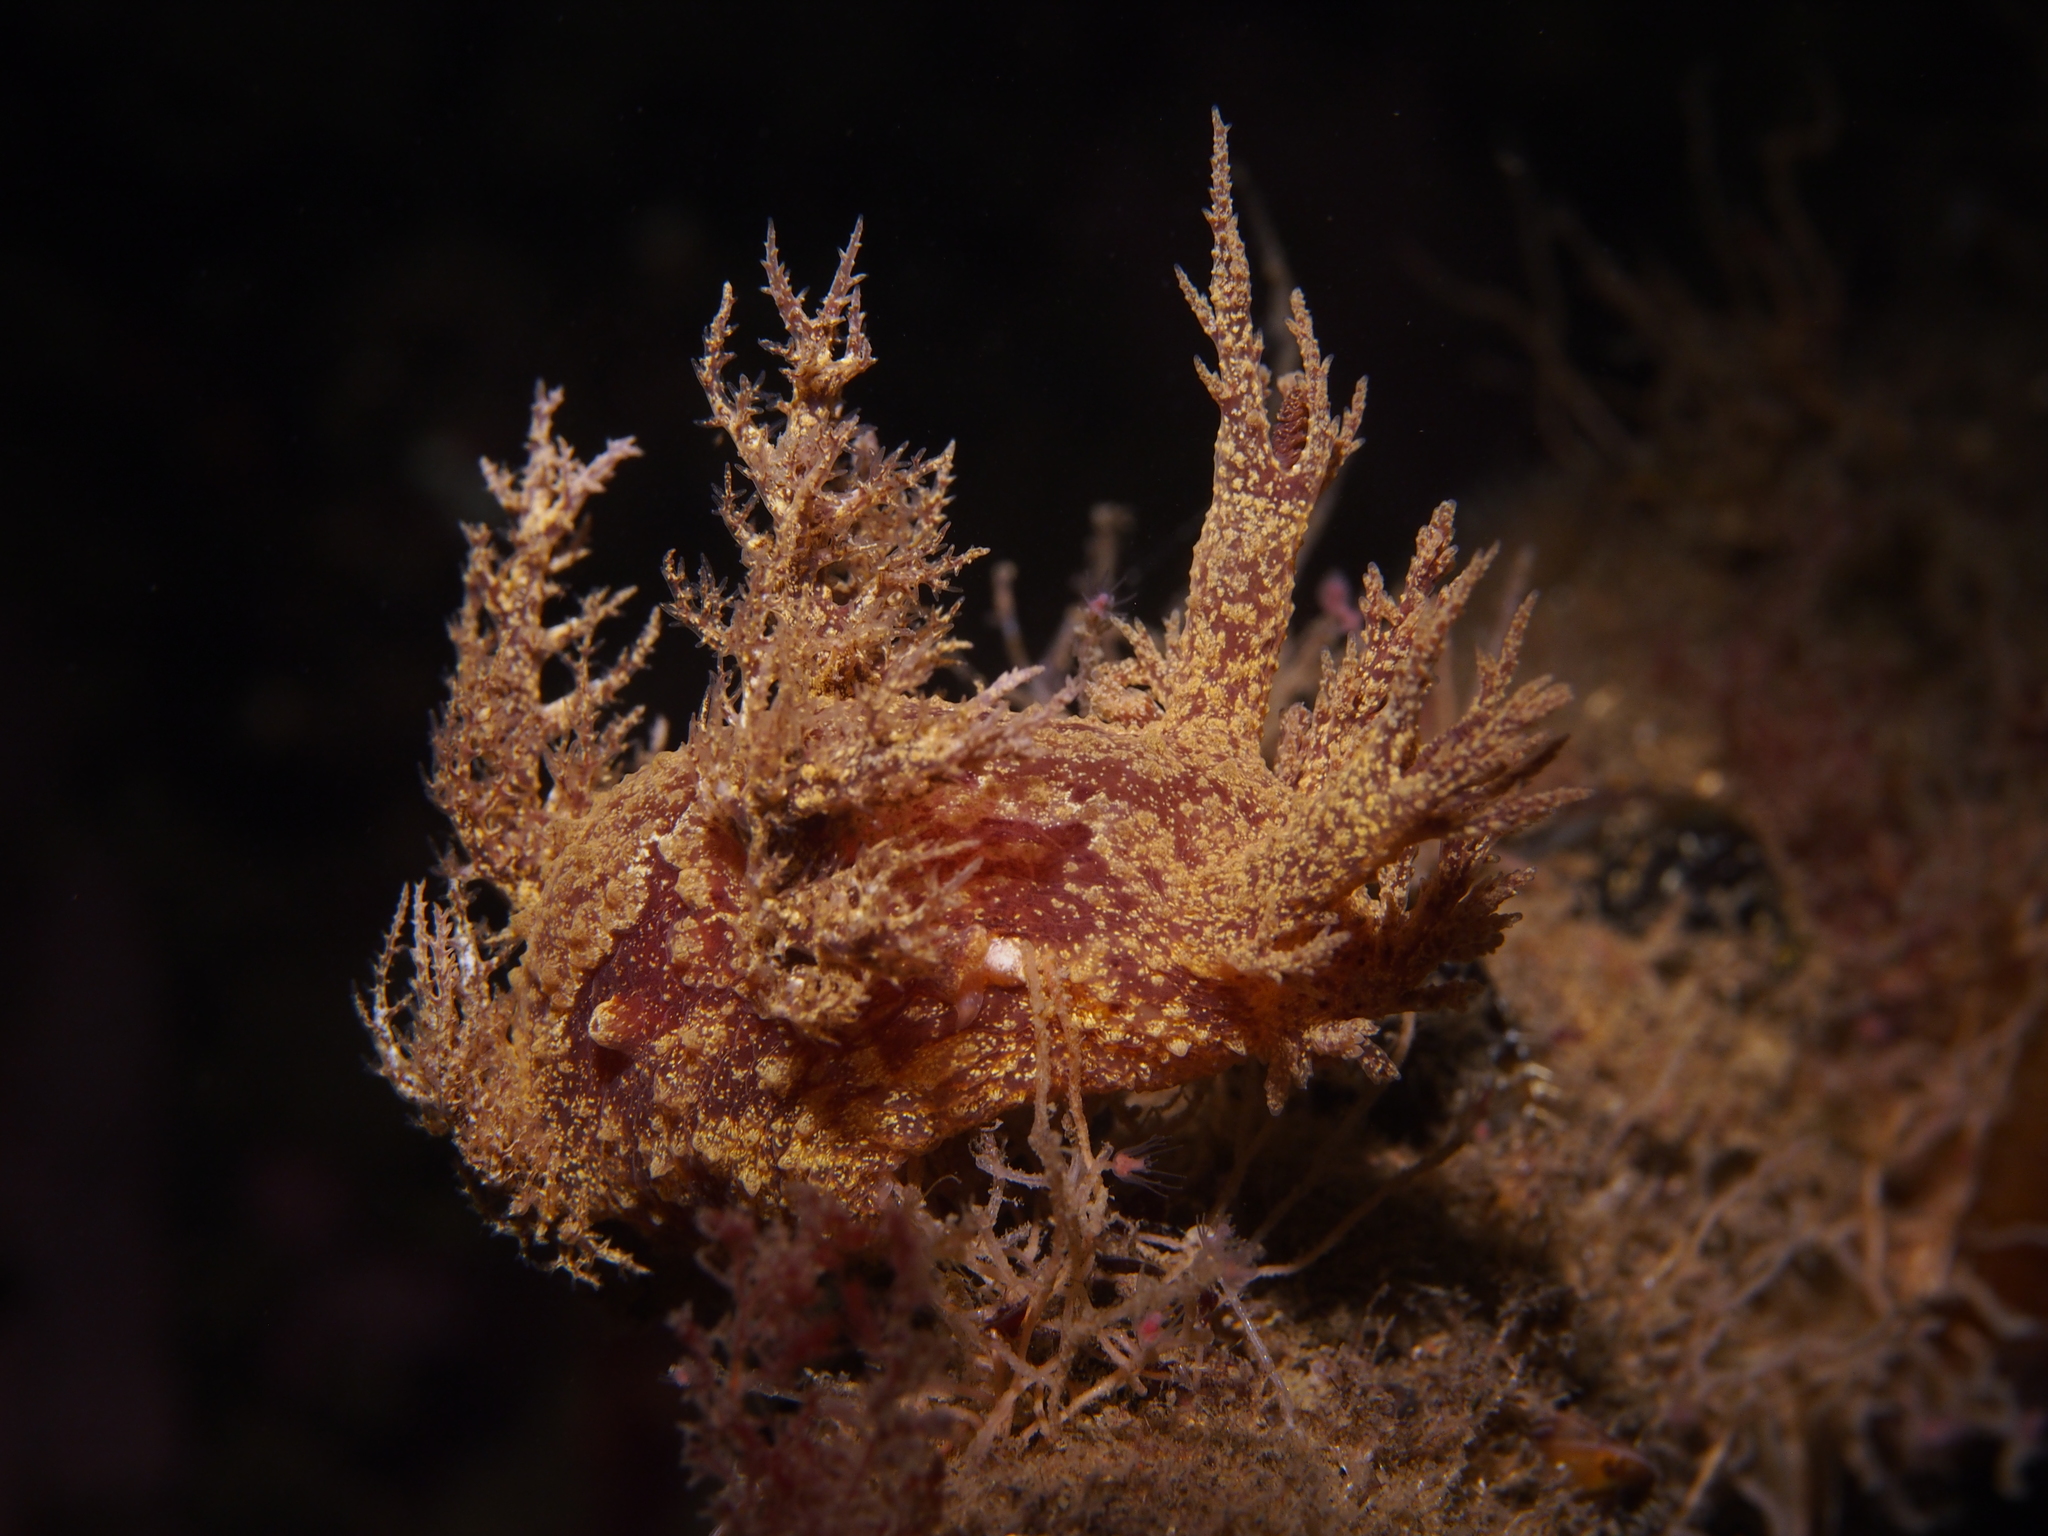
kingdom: Animalia
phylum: Mollusca
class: Gastropoda
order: Nudibranchia
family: Dendronotidae
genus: Dendronotus
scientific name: Dendronotus europaeus
